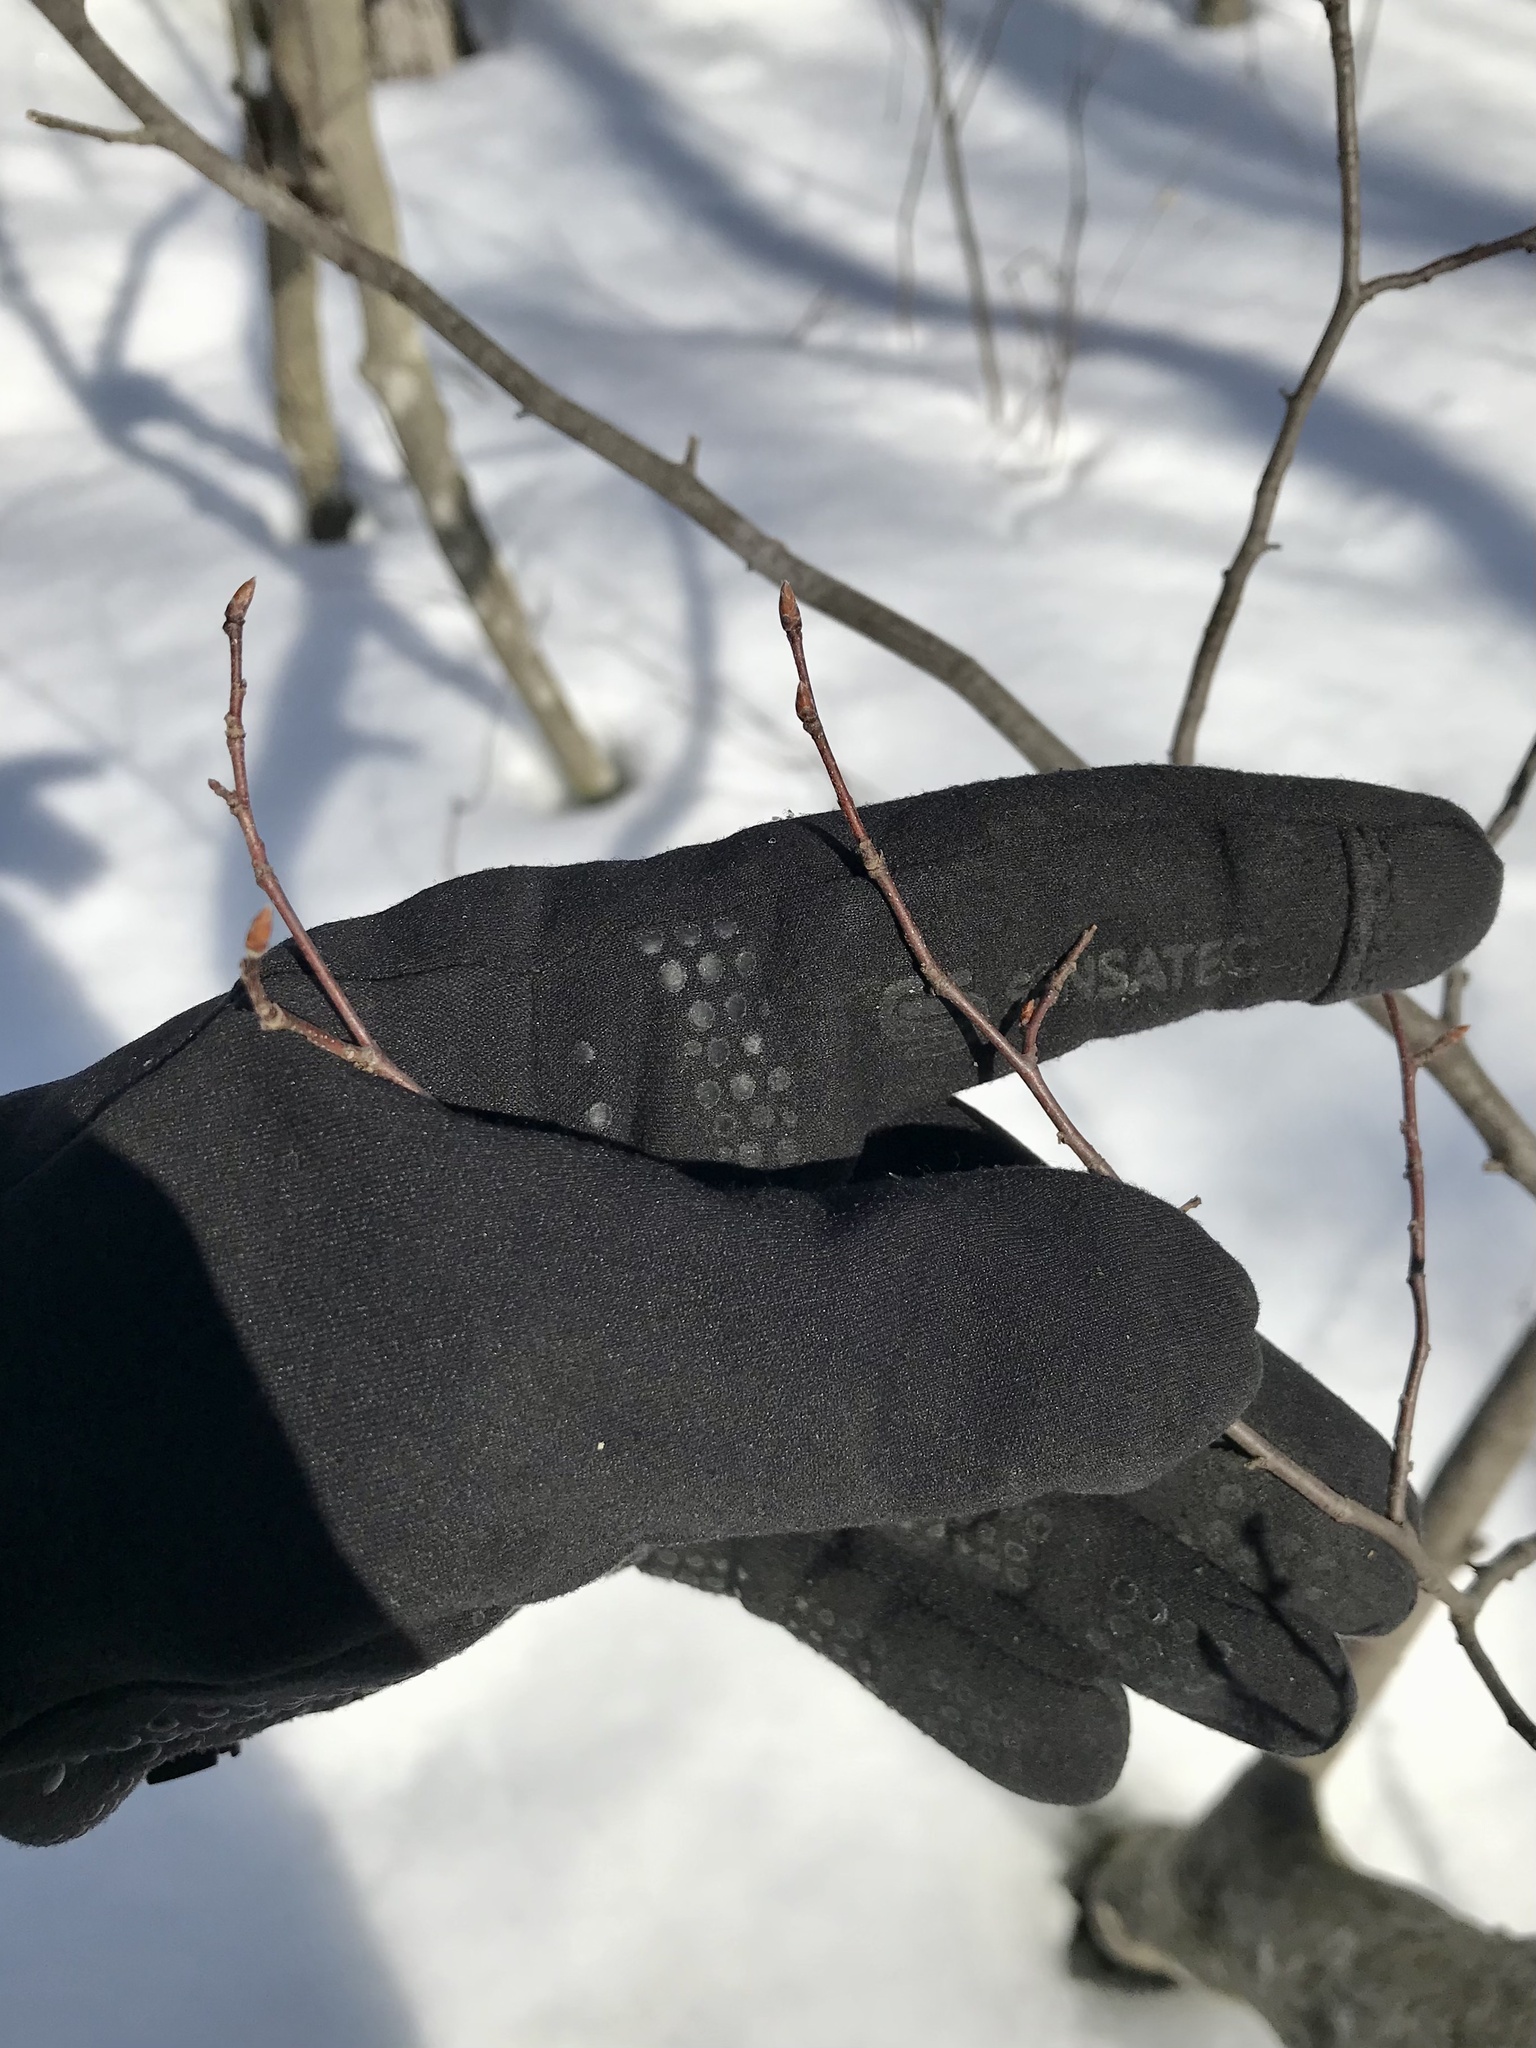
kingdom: Plantae
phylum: Tracheophyta
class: Magnoliopsida
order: Fagales
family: Betulaceae
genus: Carpinus
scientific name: Carpinus caroliniana
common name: American hornbeam
